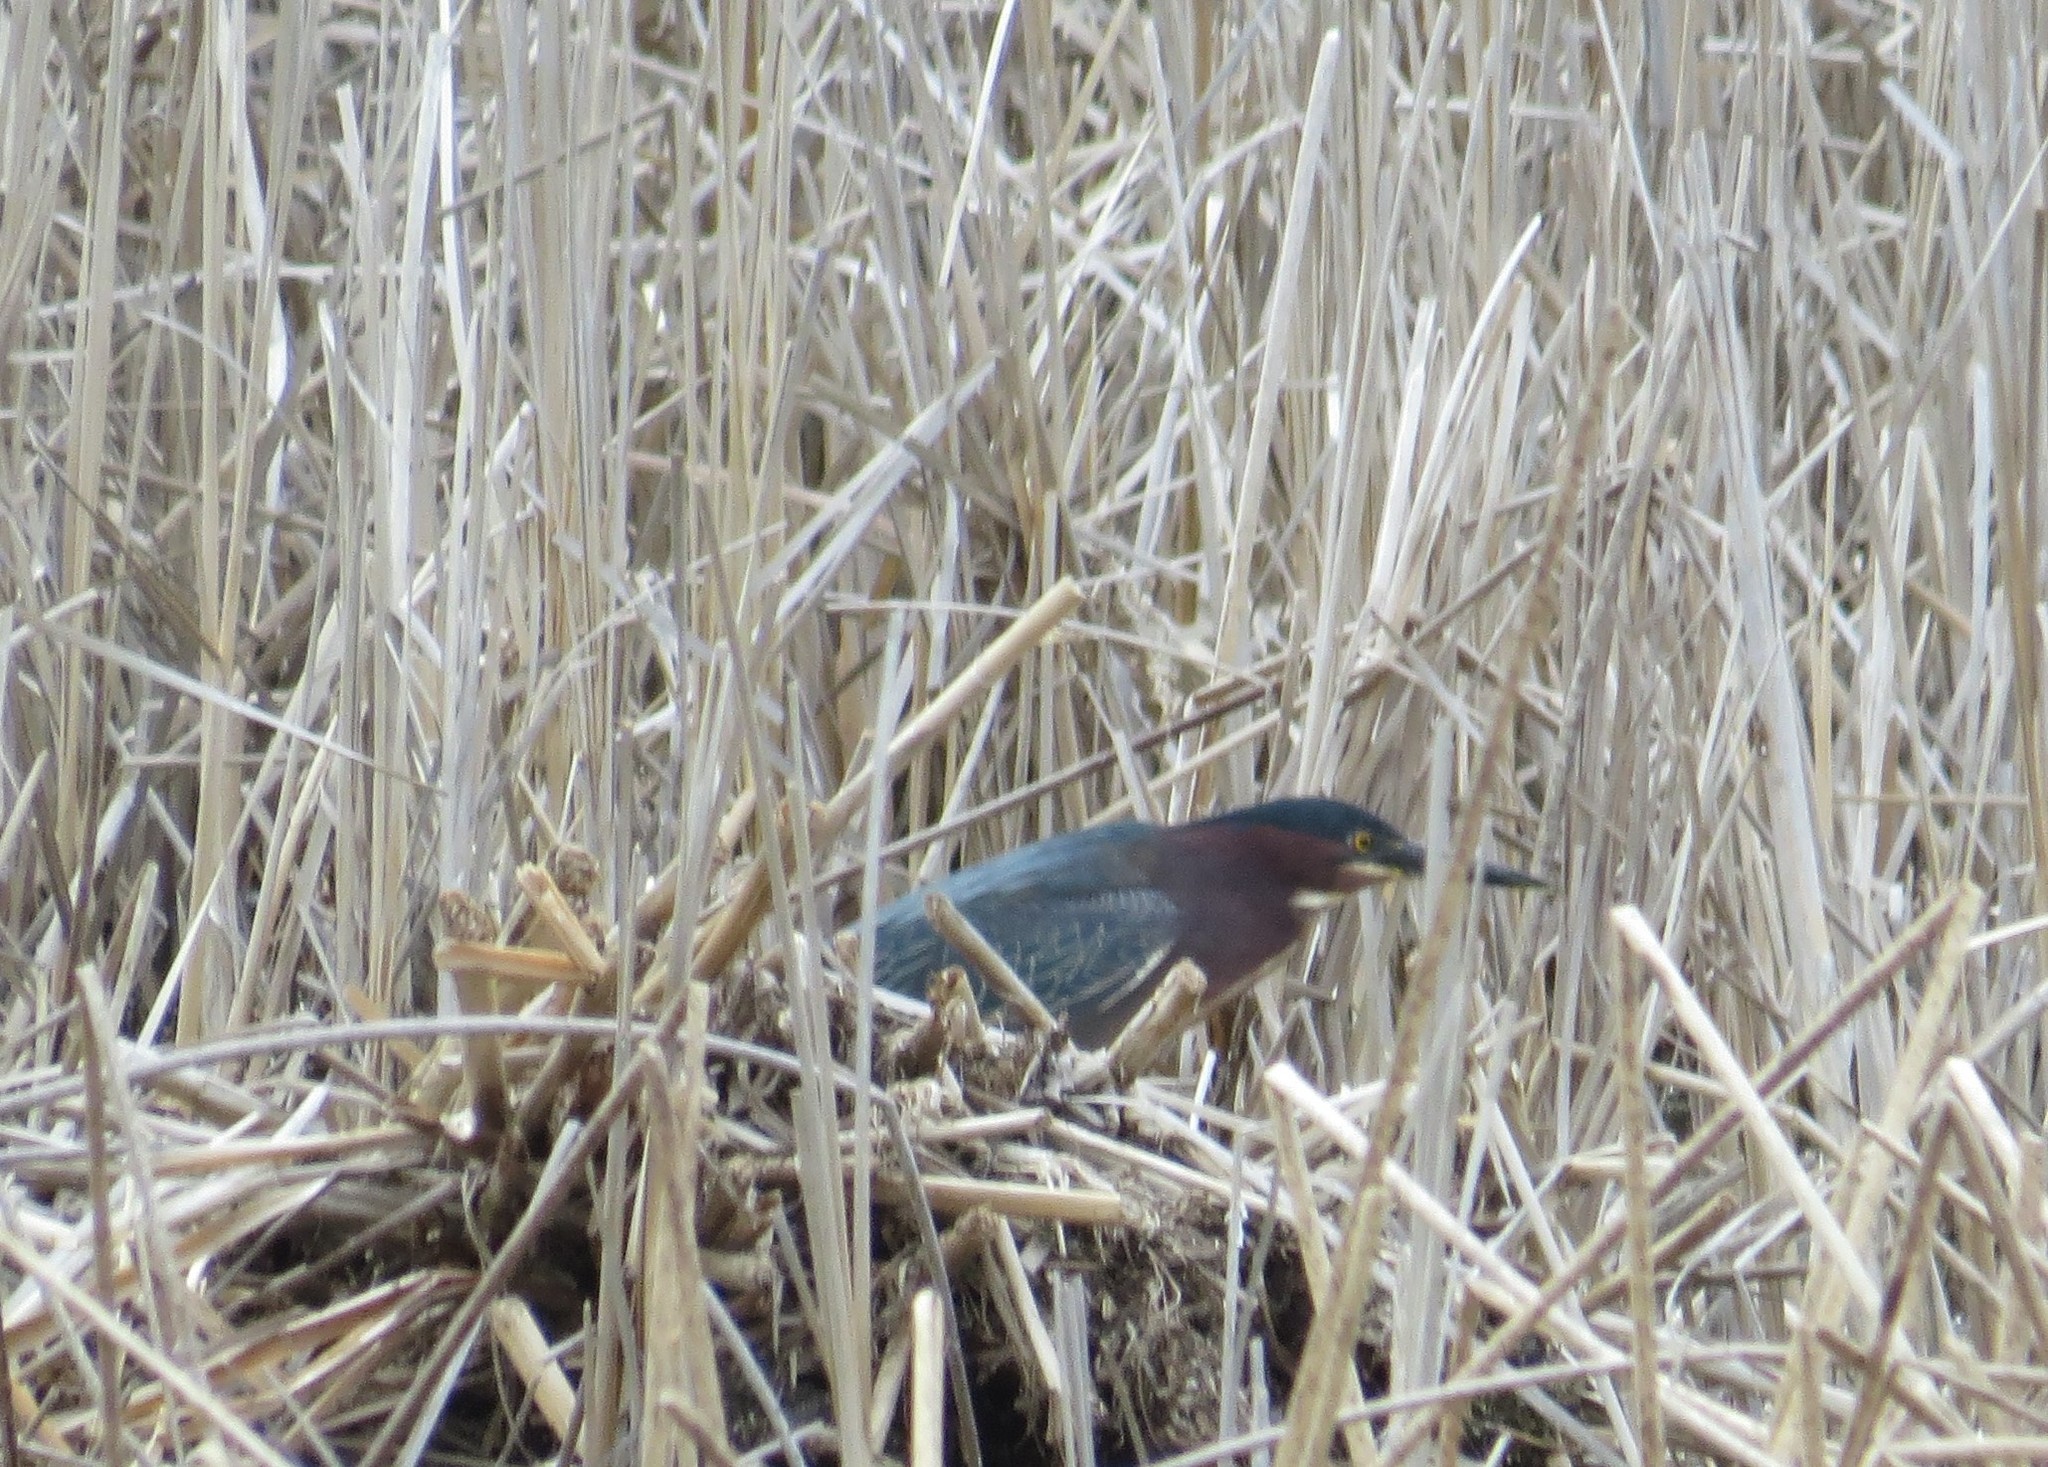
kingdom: Animalia
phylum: Chordata
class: Aves
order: Pelecaniformes
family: Ardeidae
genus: Butorides
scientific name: Butorides virescens
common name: Green heron
